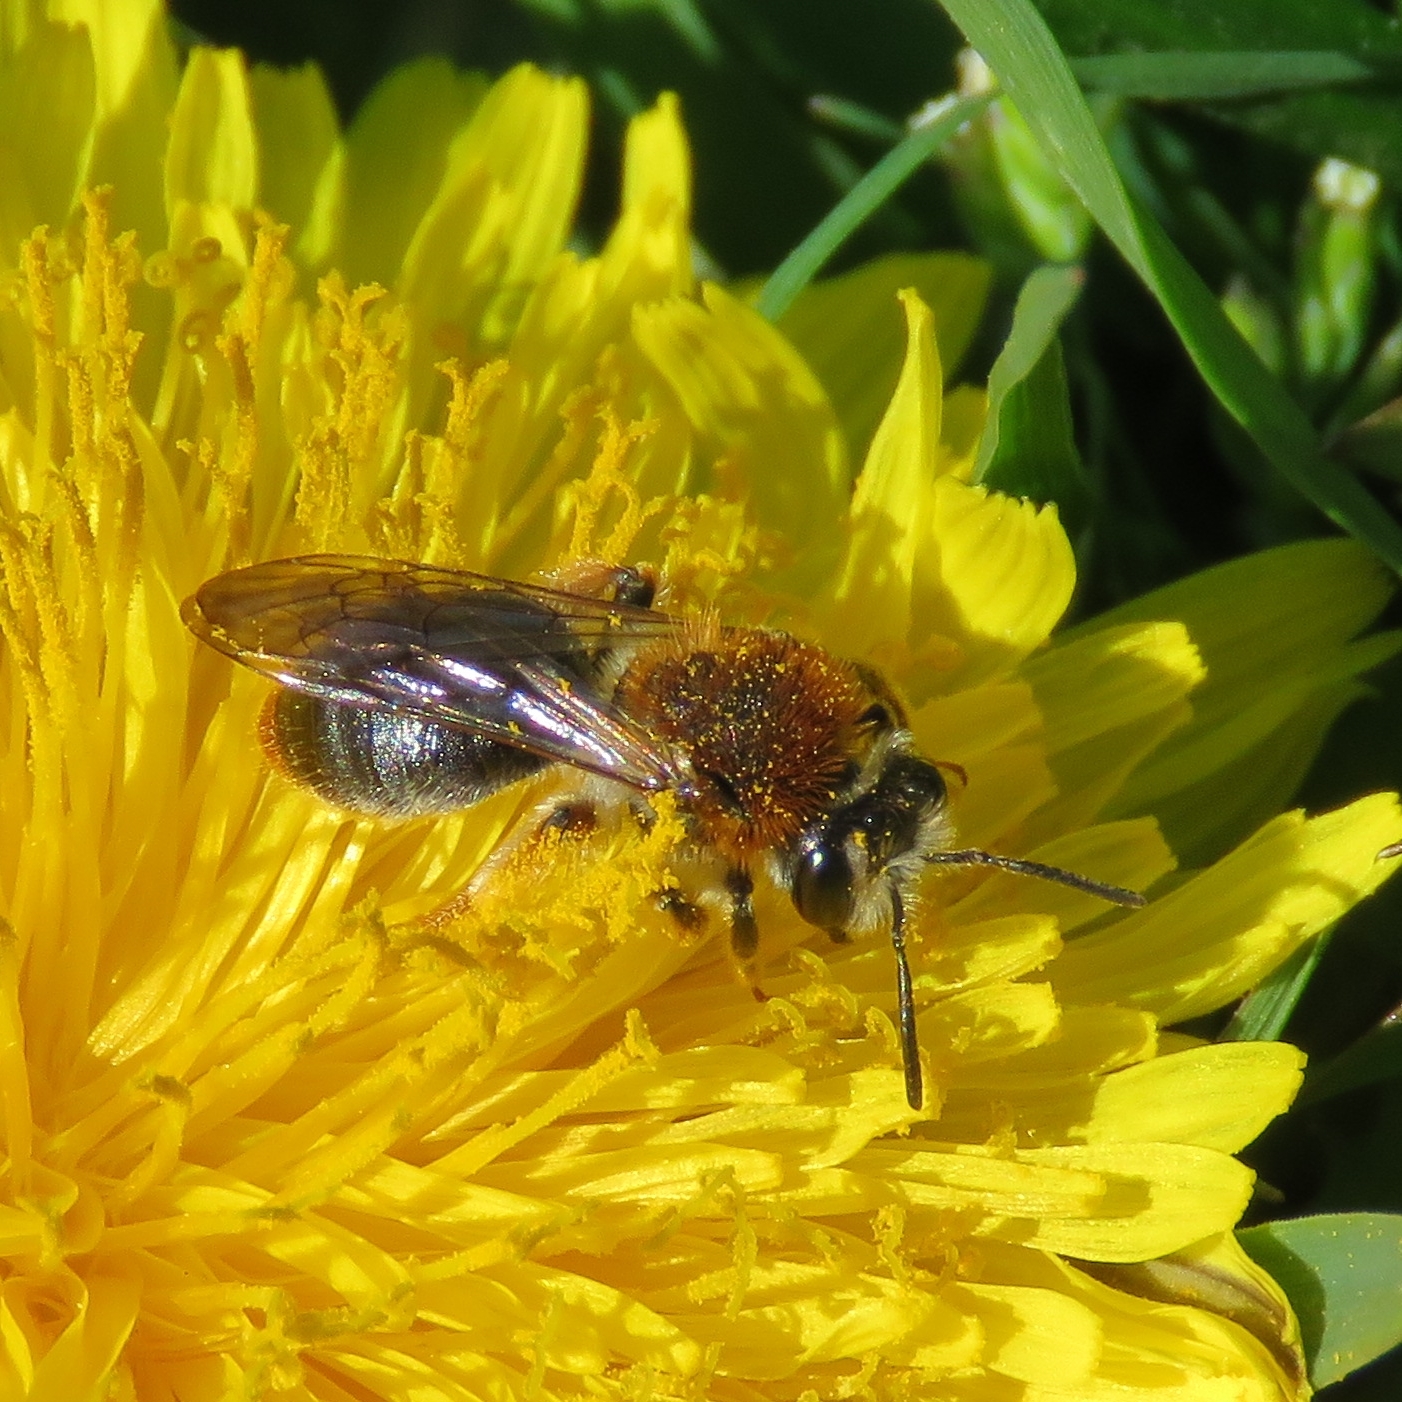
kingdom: Animalia
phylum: Arthropoda
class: Insecta
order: Hymenoptera
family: Andrenidae
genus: Andrena
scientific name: Andrena haemorrhoa
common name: Early mining bee
